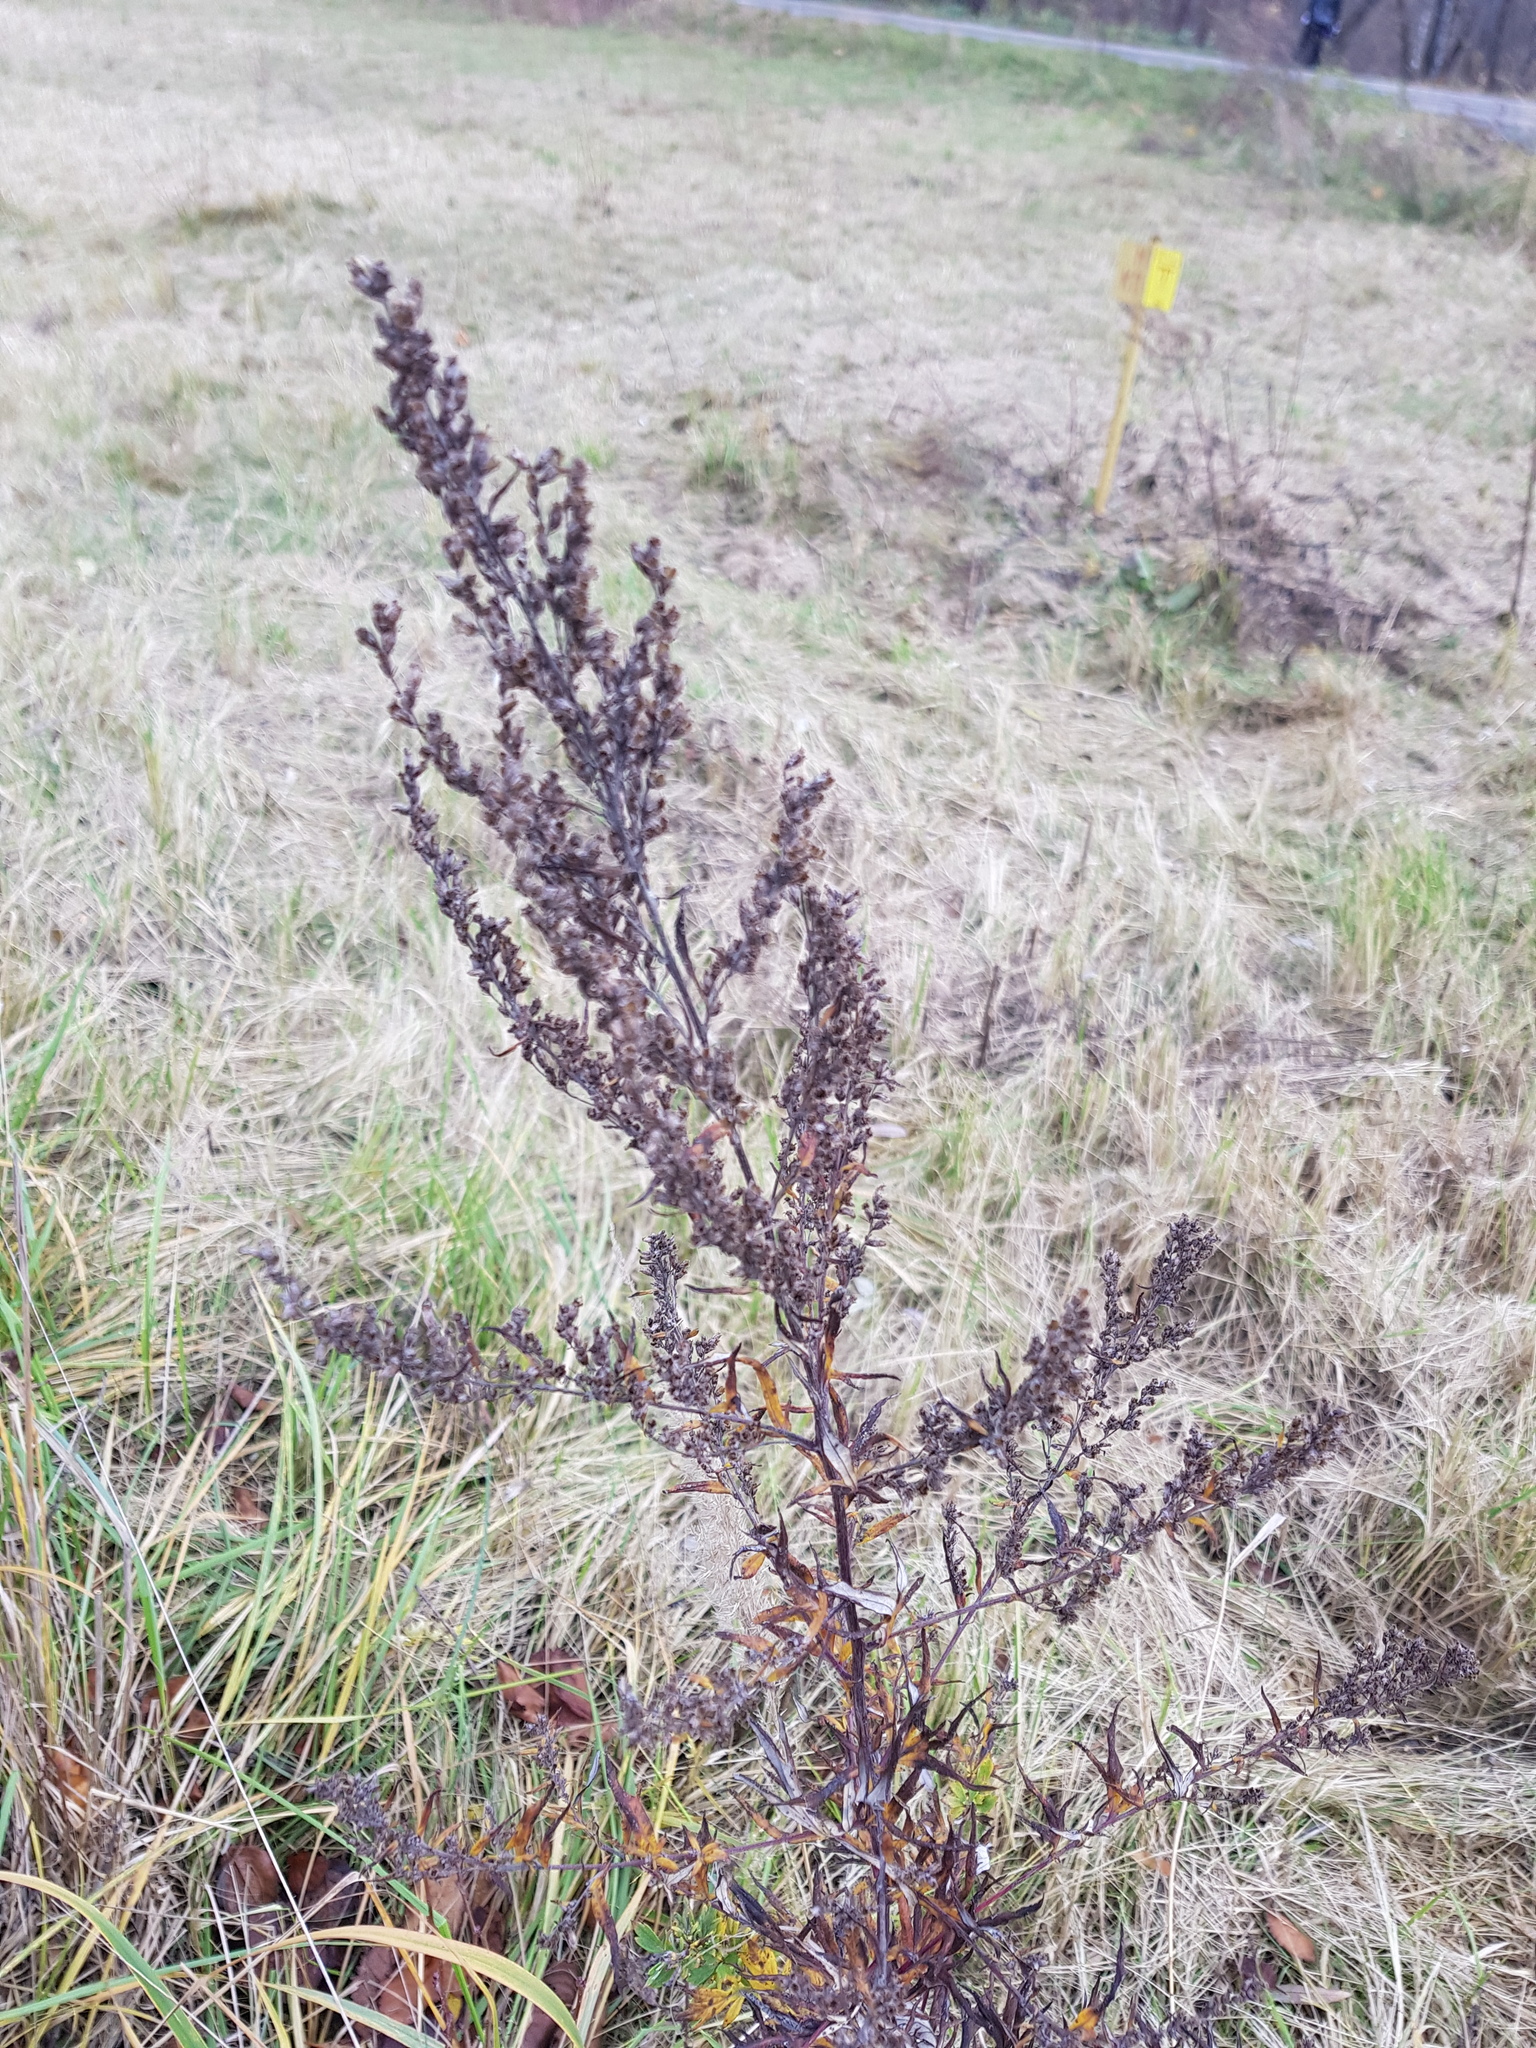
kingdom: Plantae
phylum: Tracheophyta
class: Magnoliopsida
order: Asterales
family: Asteraceae
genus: Artemisia
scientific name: Artemisia vulgaris
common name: Mugwort
